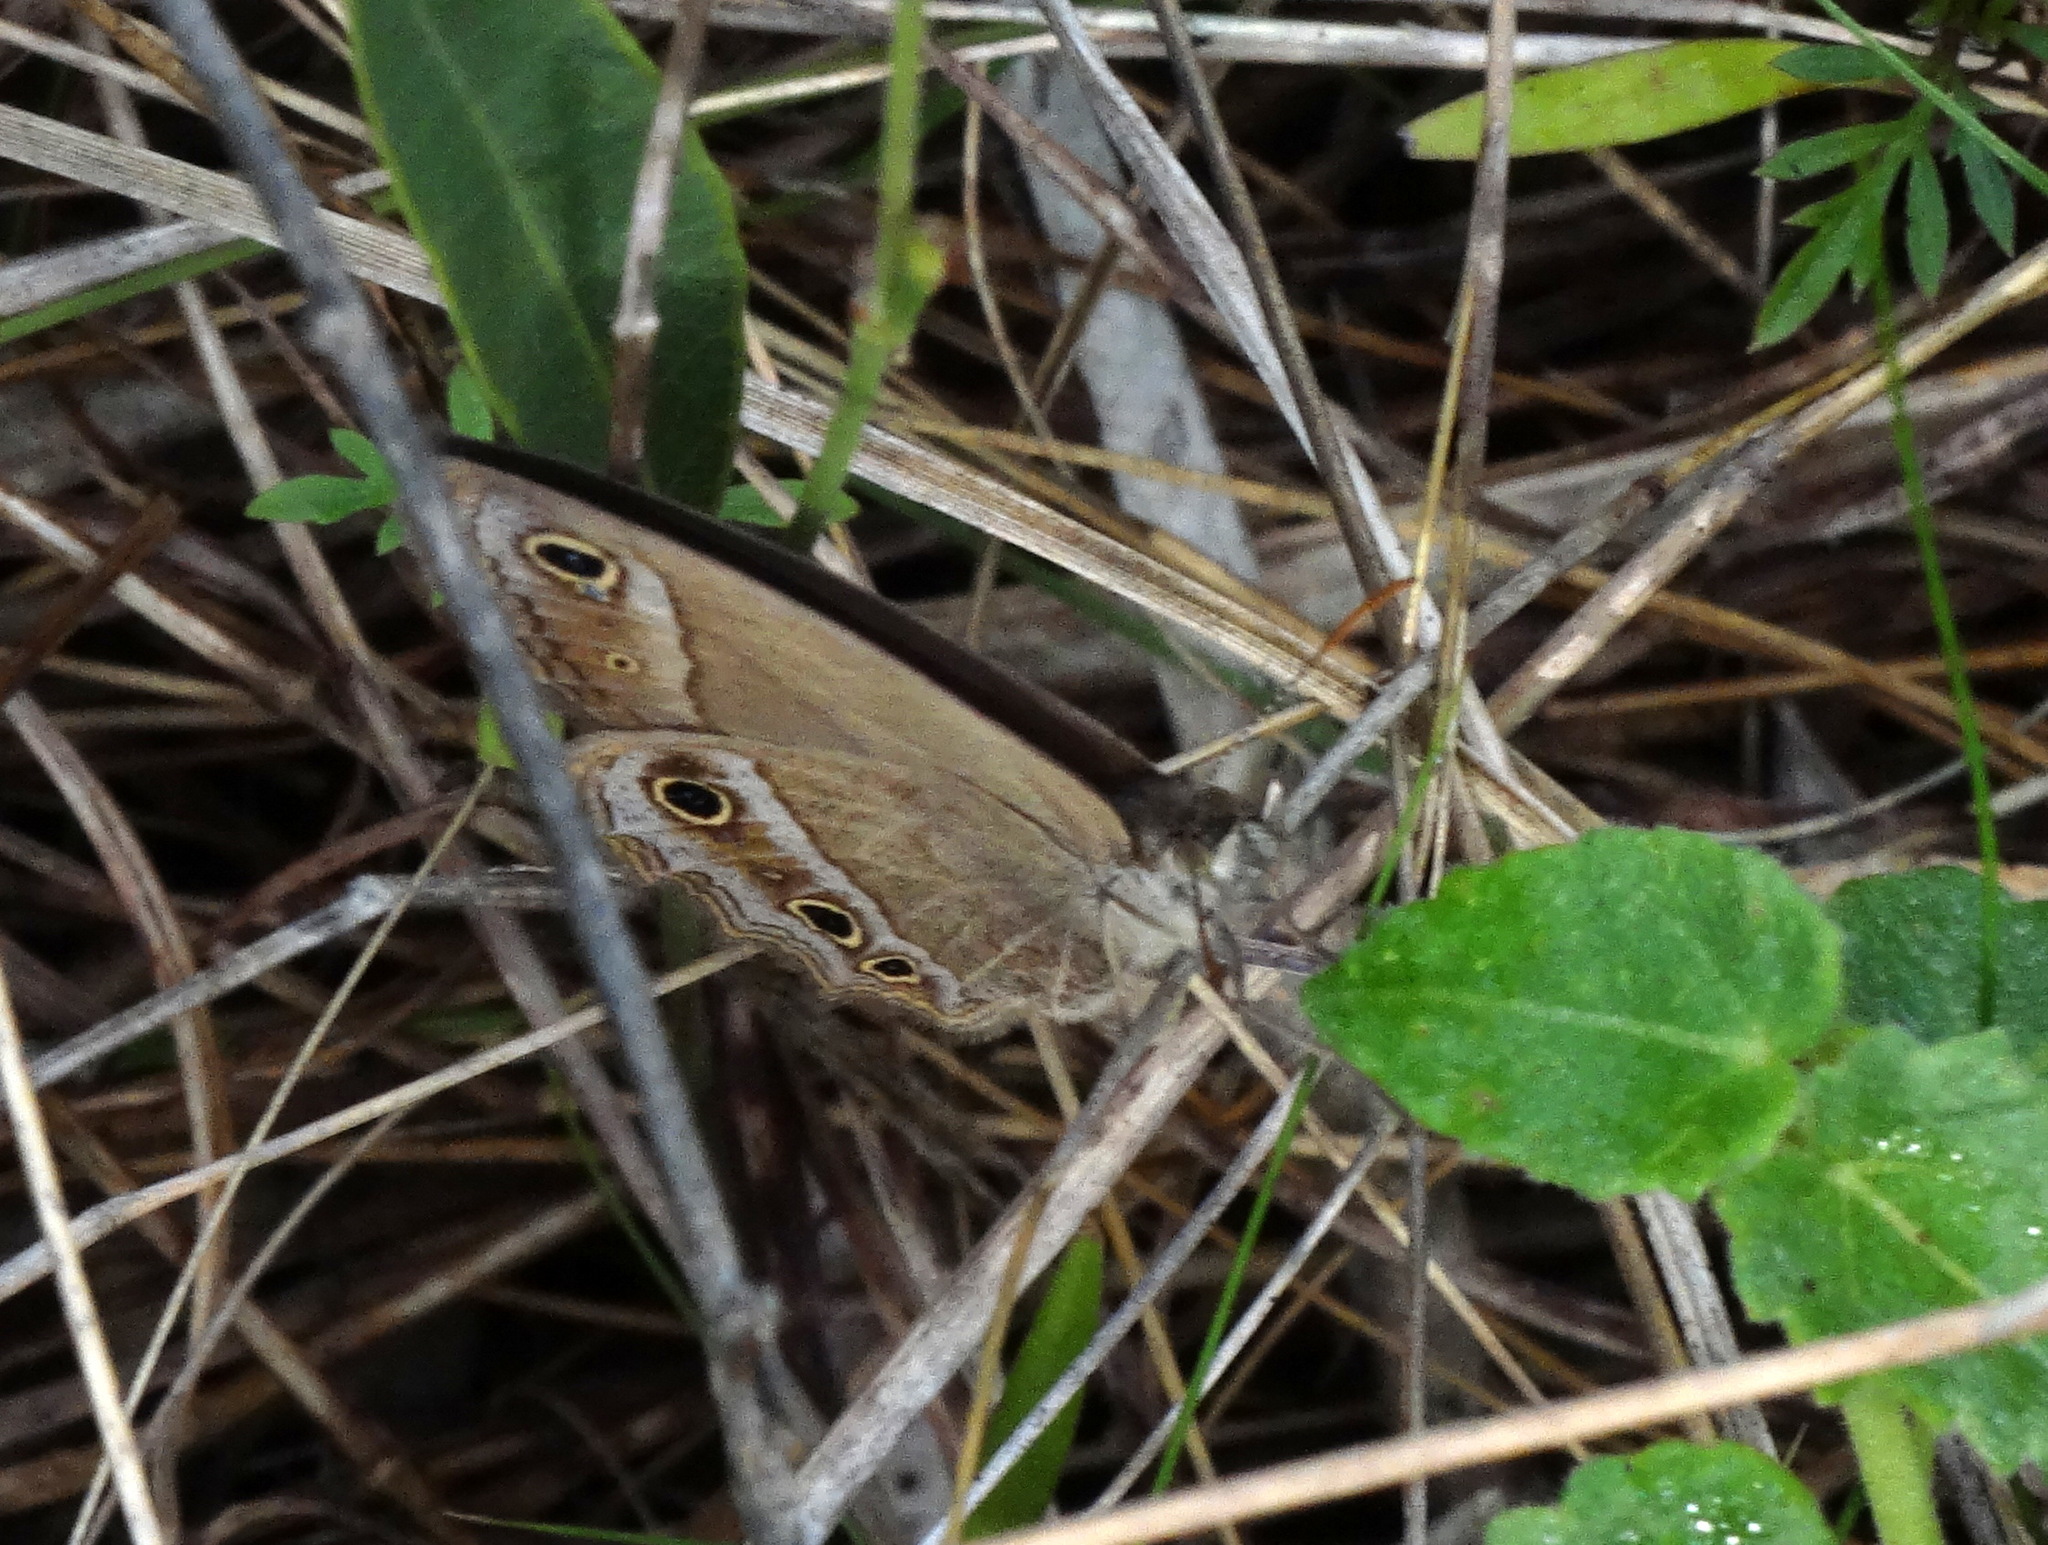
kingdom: Animalia
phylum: Arthropoda
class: Insecta
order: Lepidoptera
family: Nymphalidae
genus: Stegosatyrus
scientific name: Stegosatyrus periphas
